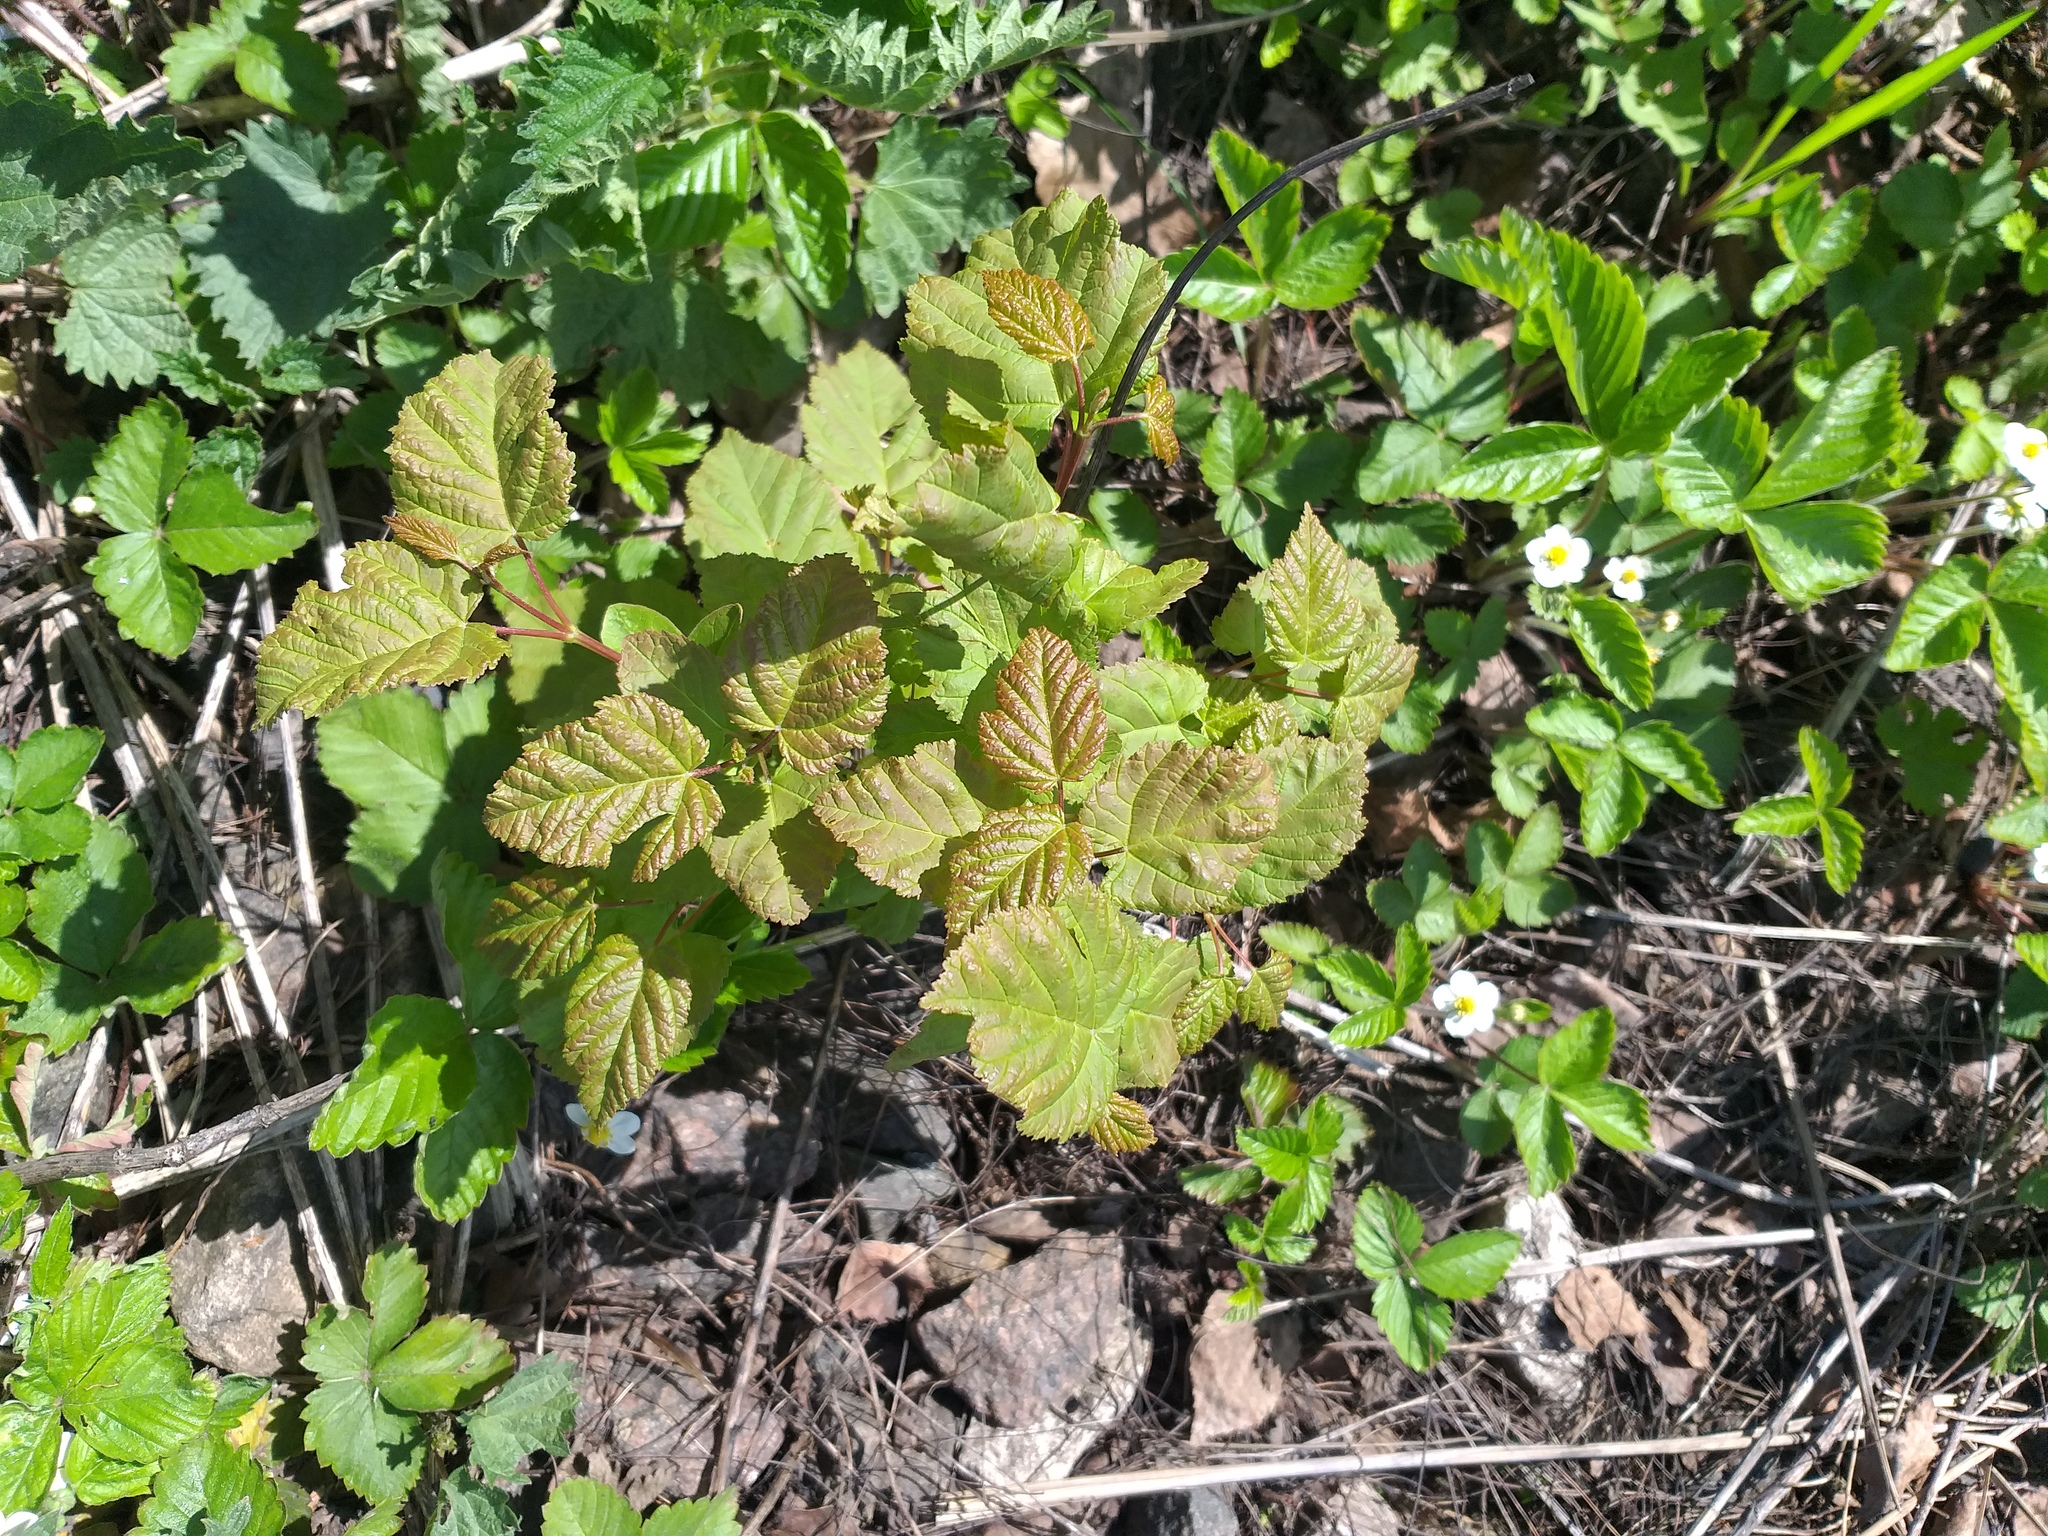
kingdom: Plantae
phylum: Tracheophyta
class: Magnoliopsida
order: Sapindales
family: Sapindaceae
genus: Acer
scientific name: Acer tataricum
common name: Tartar maple
